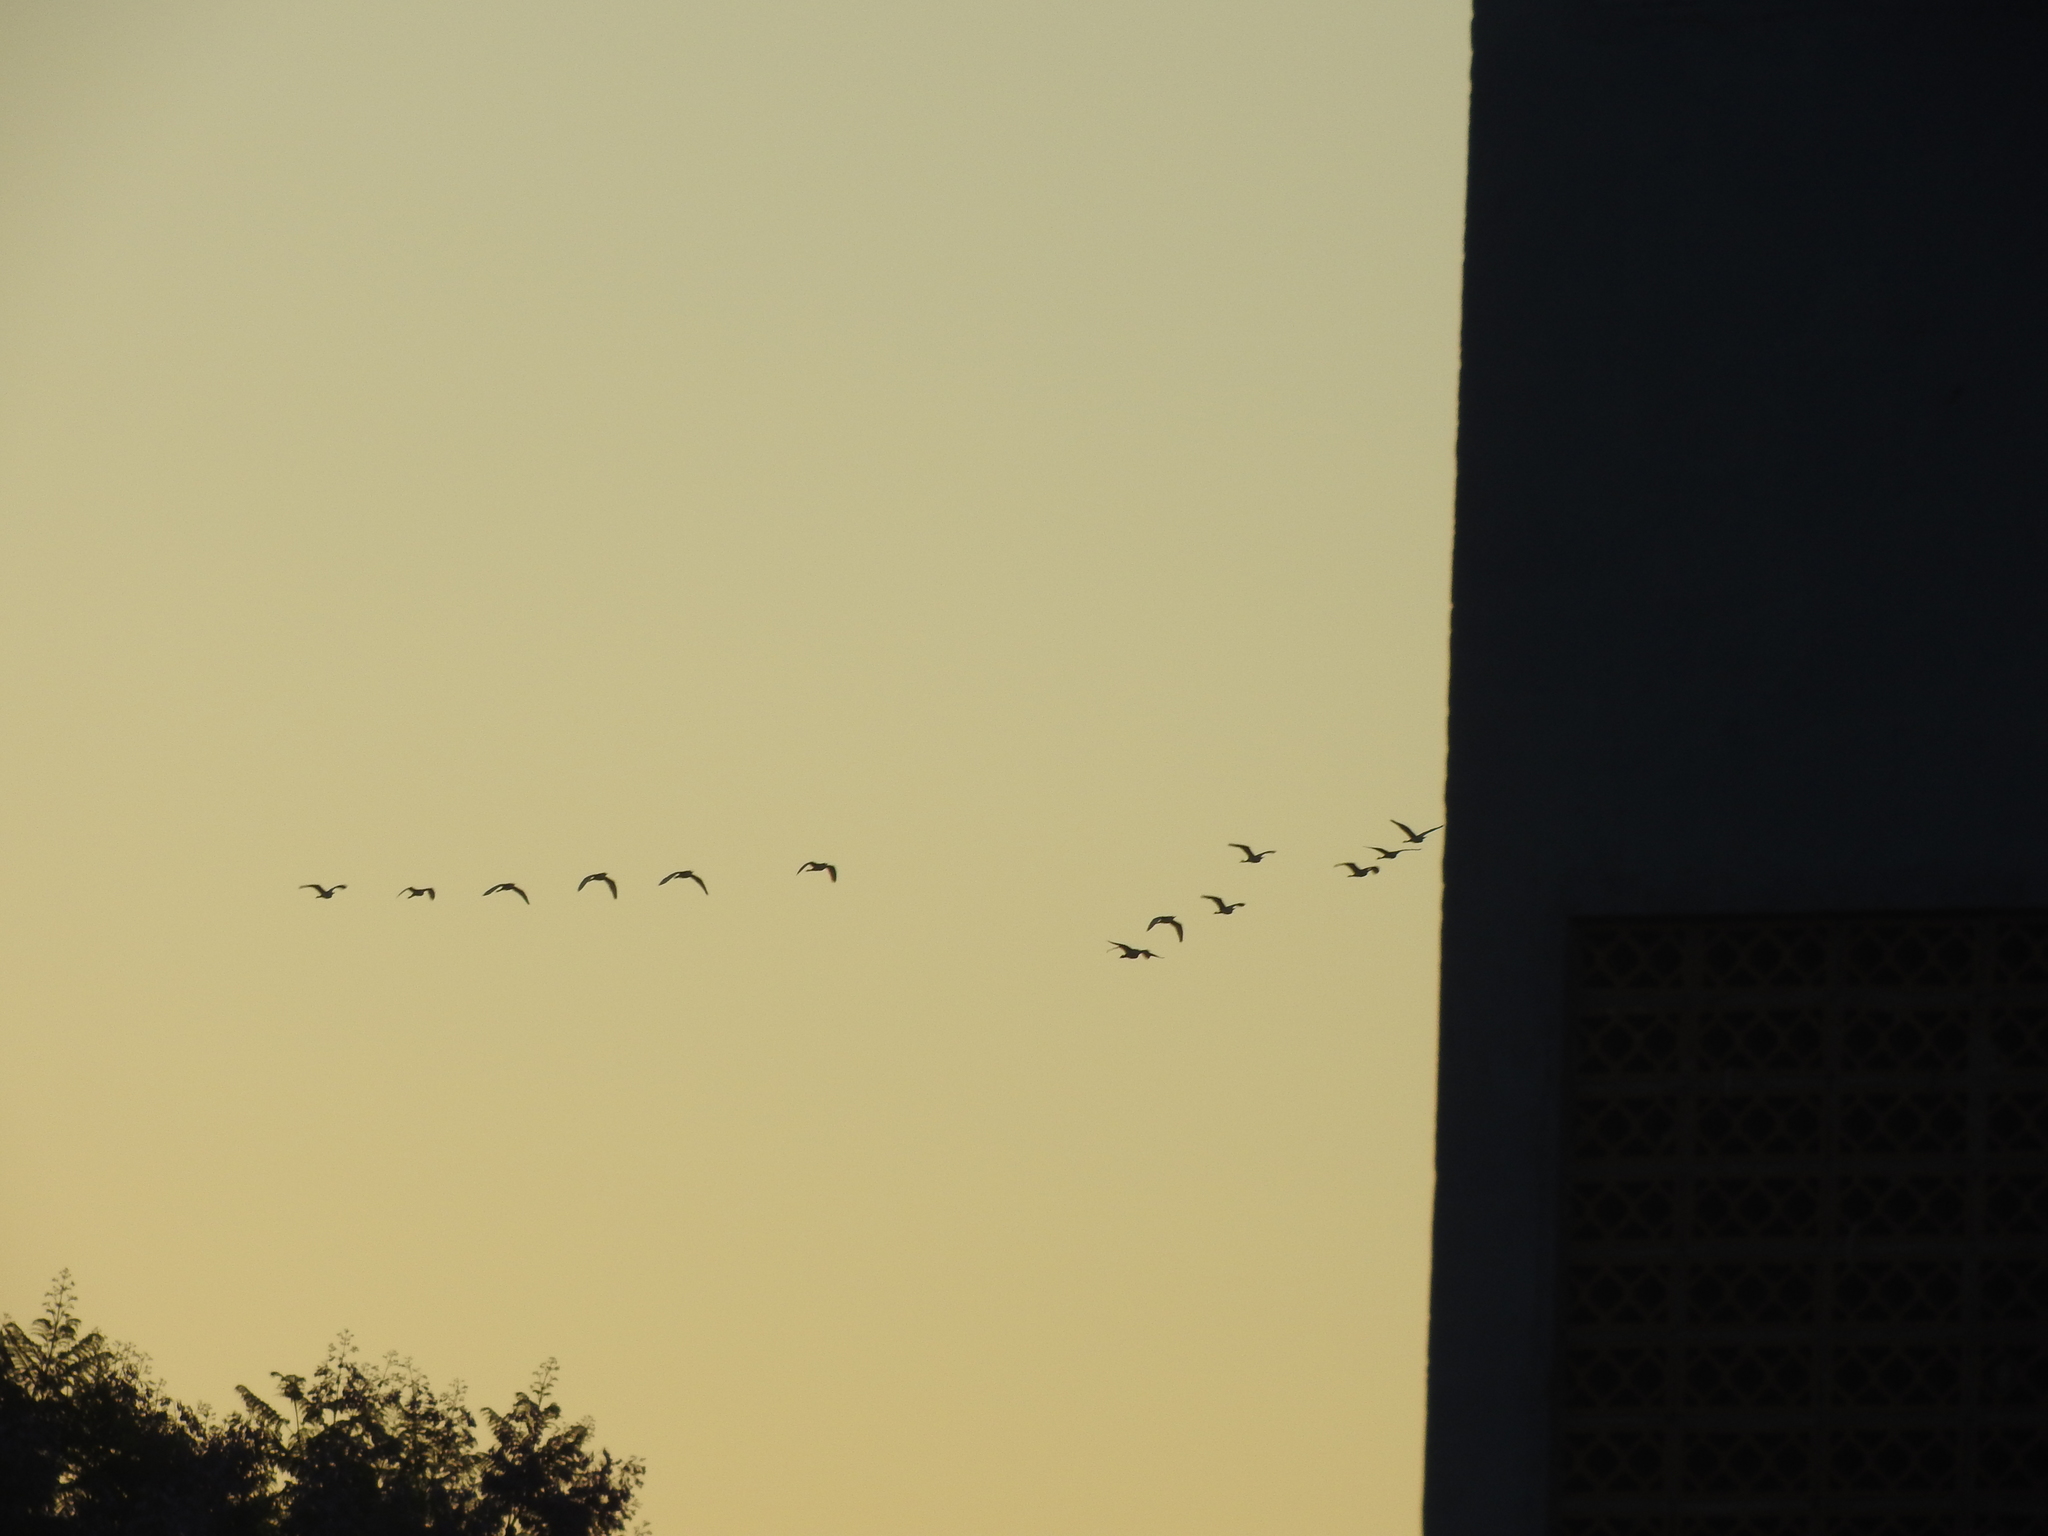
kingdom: Animalia
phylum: Chordata
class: Aves
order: Pelecaniformes
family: Ardeidae
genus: Bubulcus
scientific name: Bubulcus ibis
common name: Cattle egret
